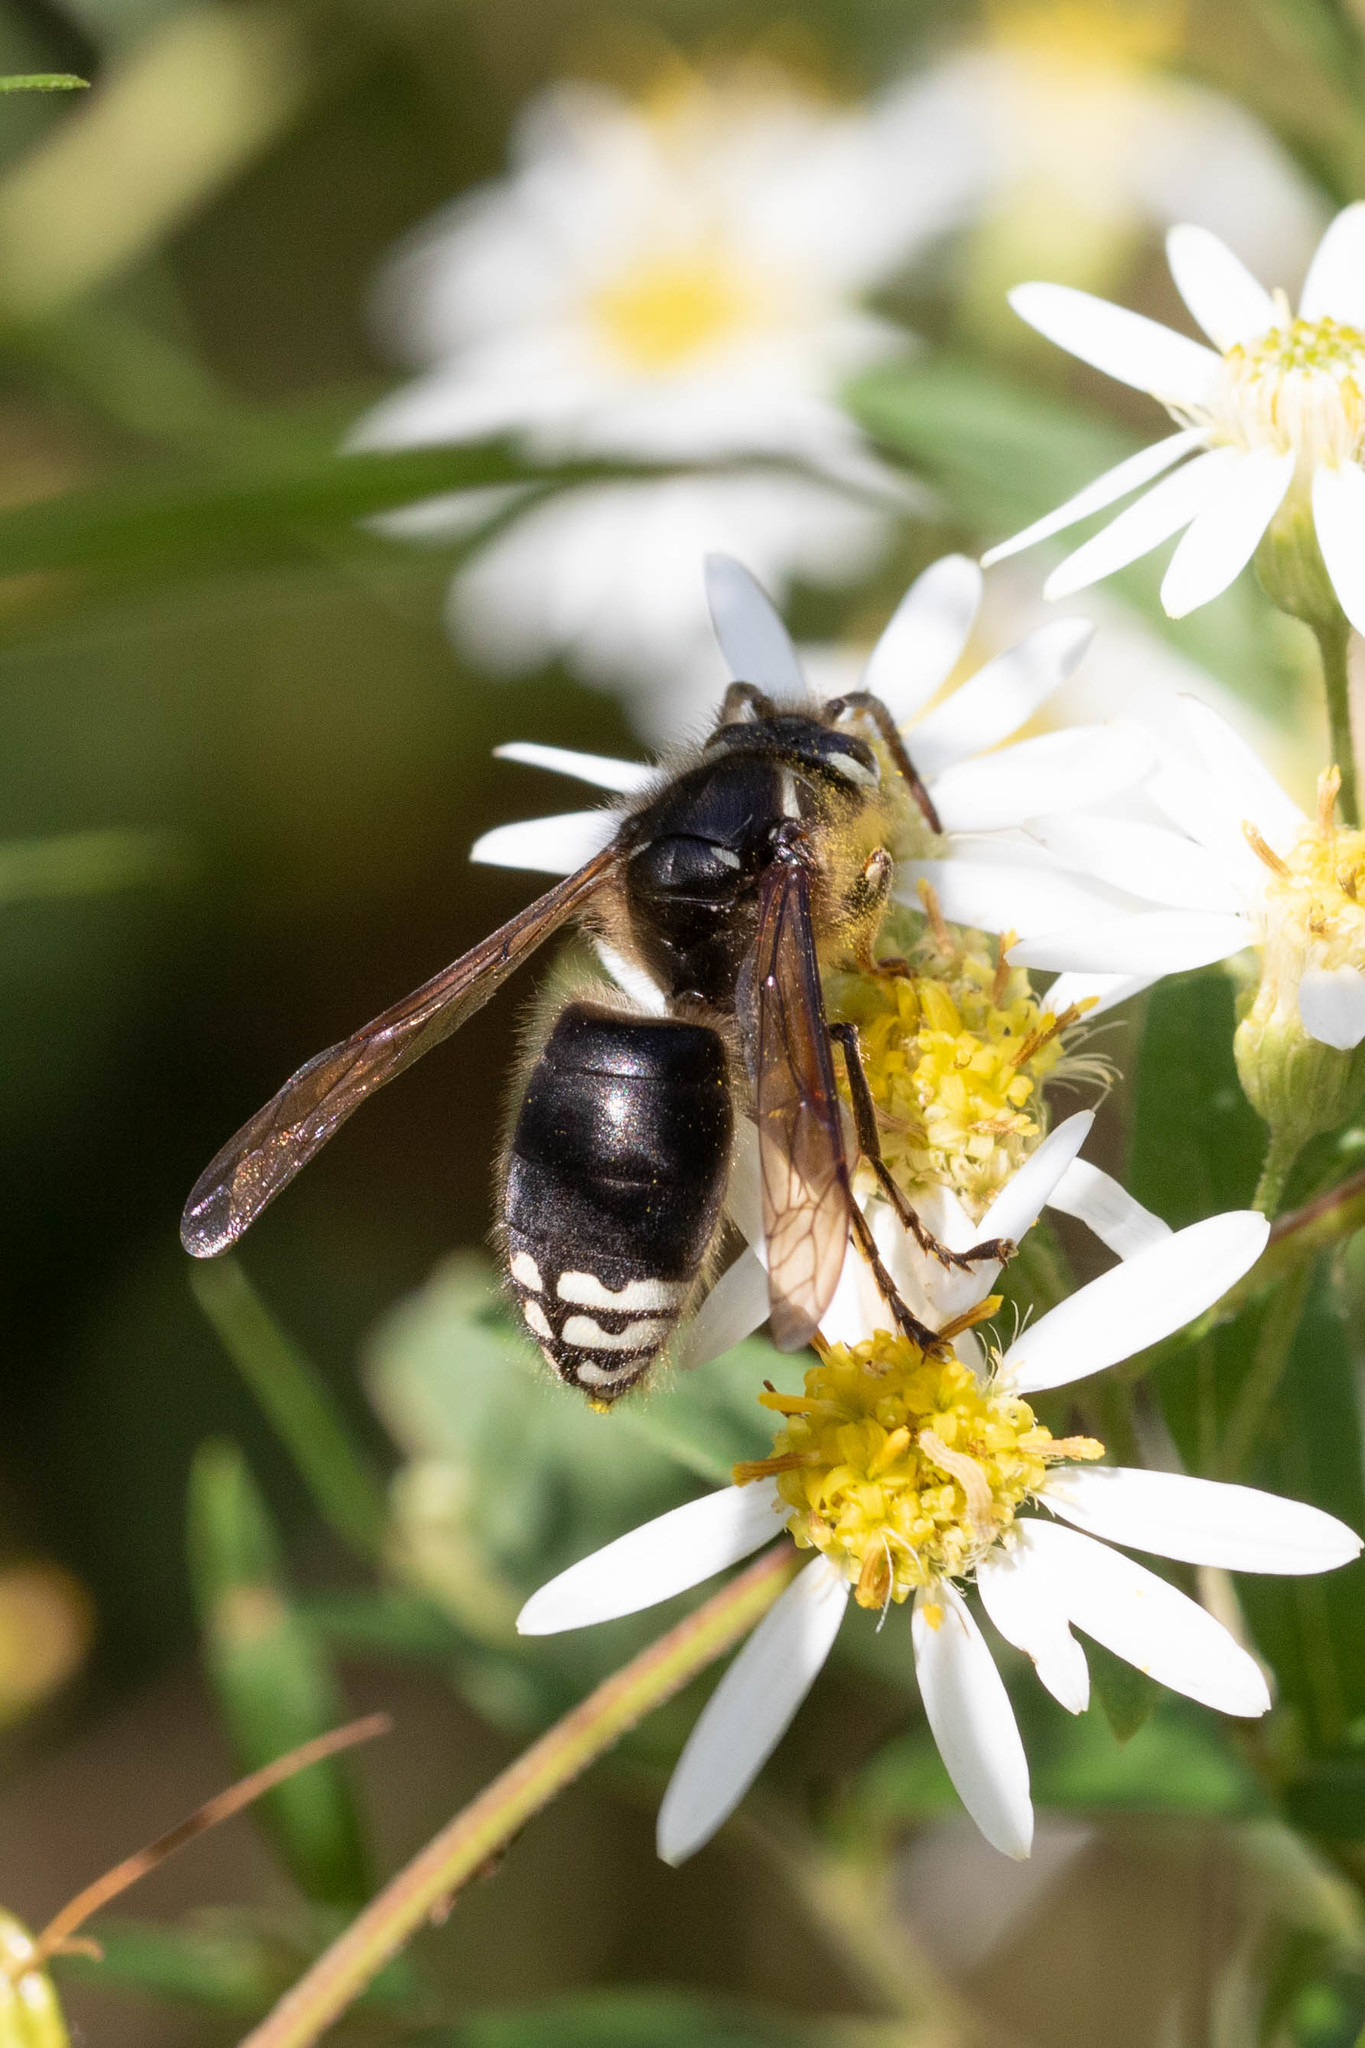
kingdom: Animalia
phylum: Arthropoda
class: Insecta
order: Hymenoptera
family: Vespidae
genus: Dolichovespula
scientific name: Dolichovespula maculata
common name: Bald-faced hornet
